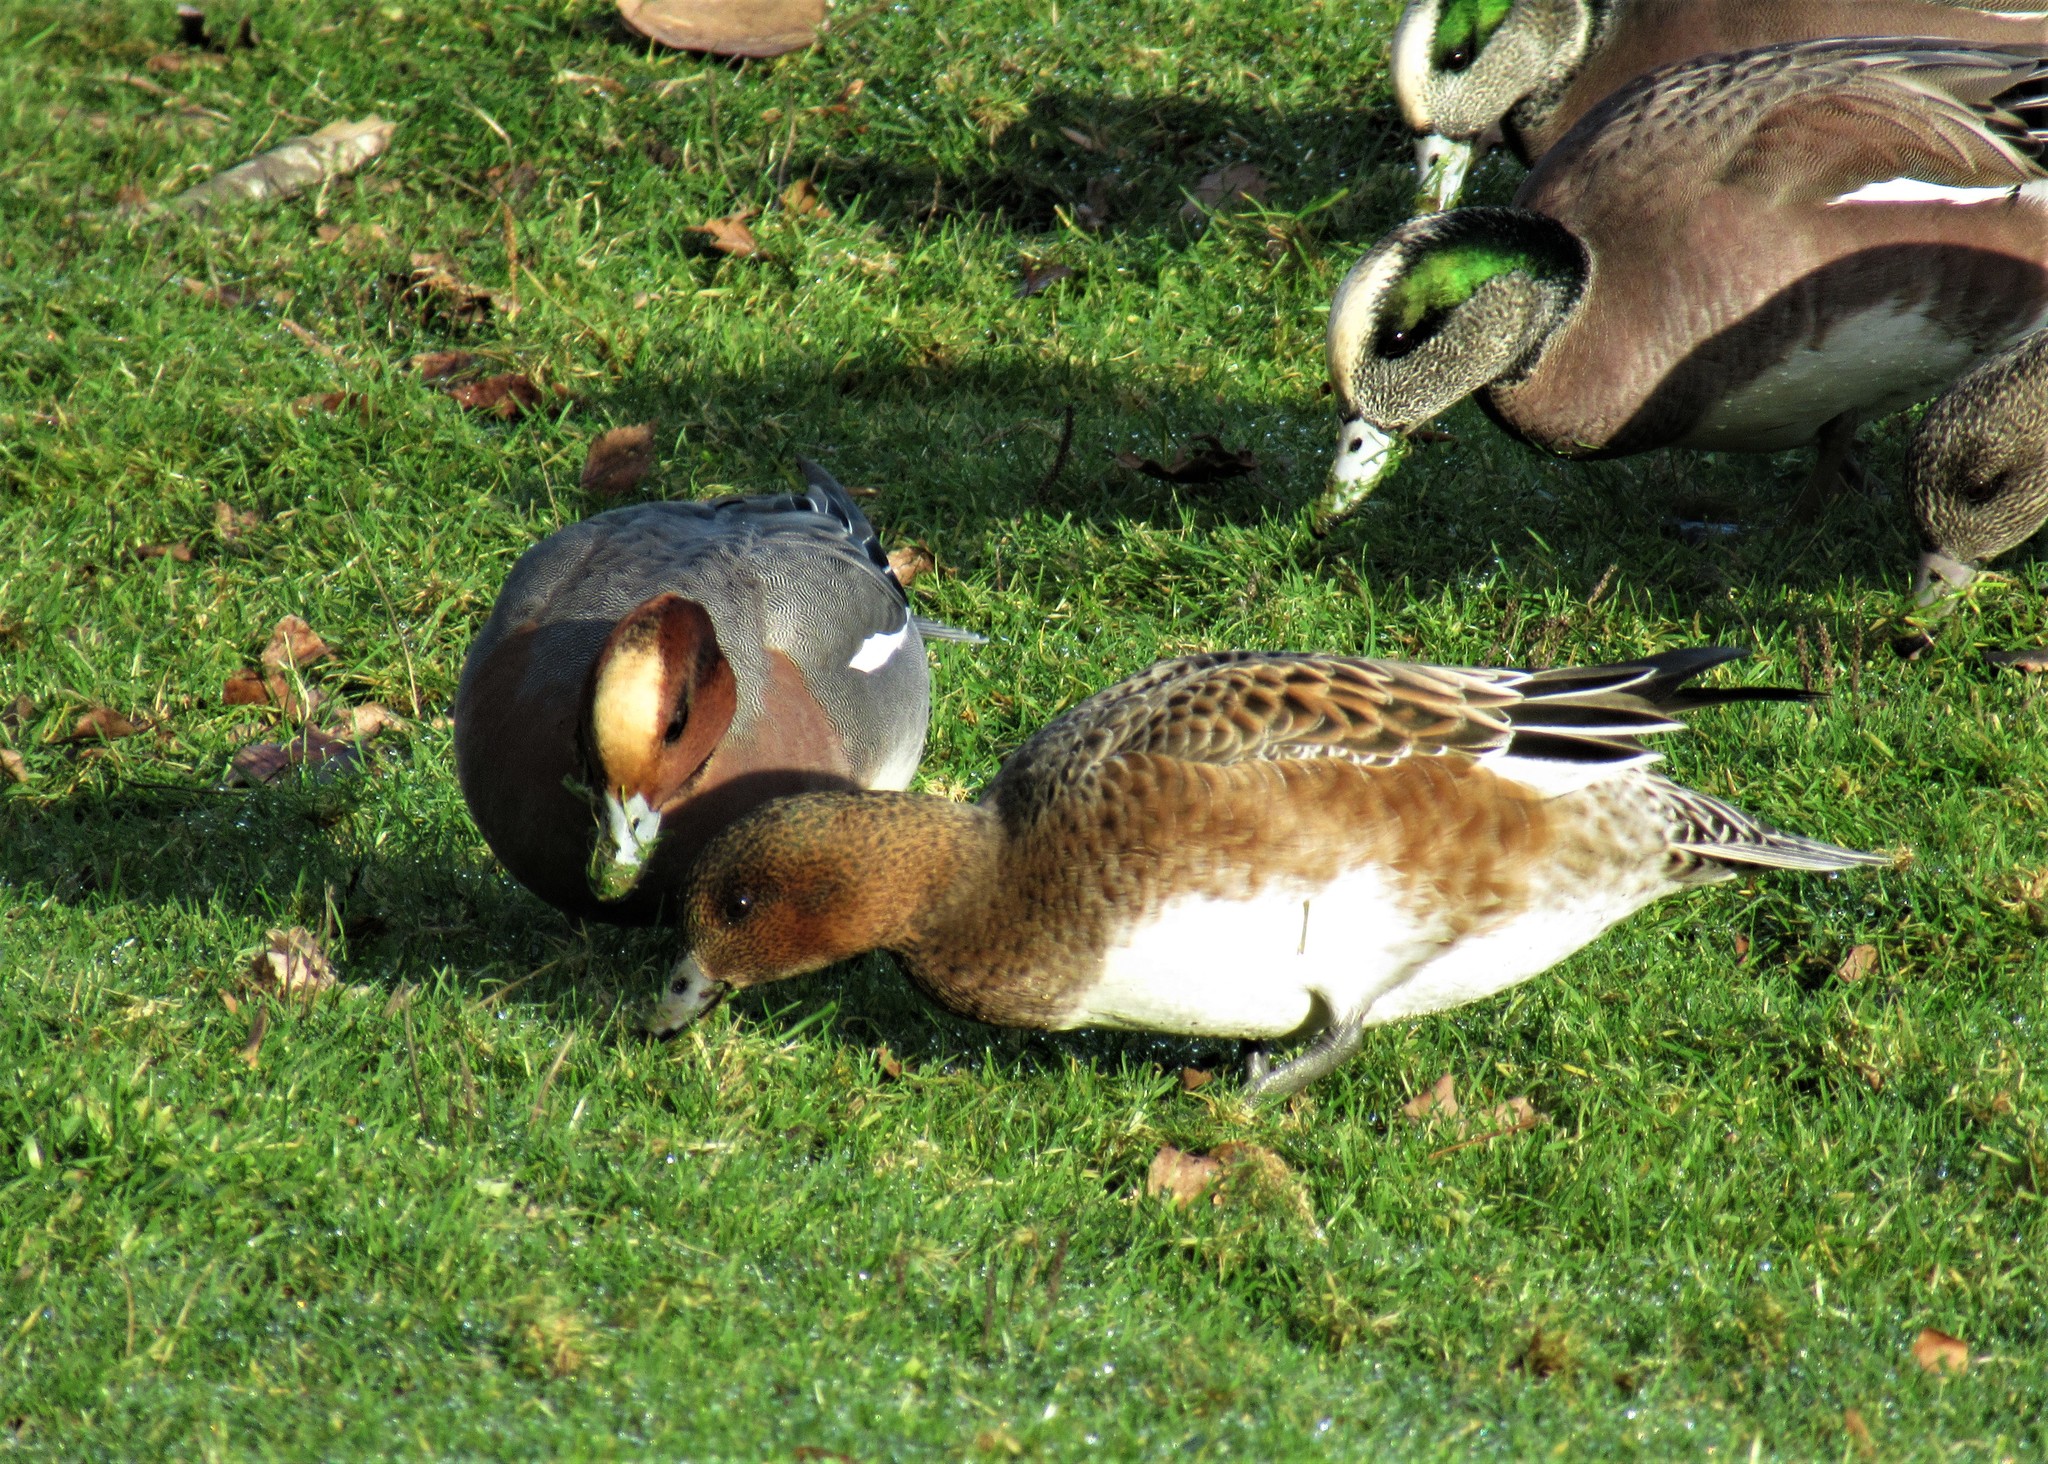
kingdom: Animalia
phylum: Chordata
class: Aves
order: Anseriformes
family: Anatidae
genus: Mareca
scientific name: Mareca penelope
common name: Eurasian wigeon
